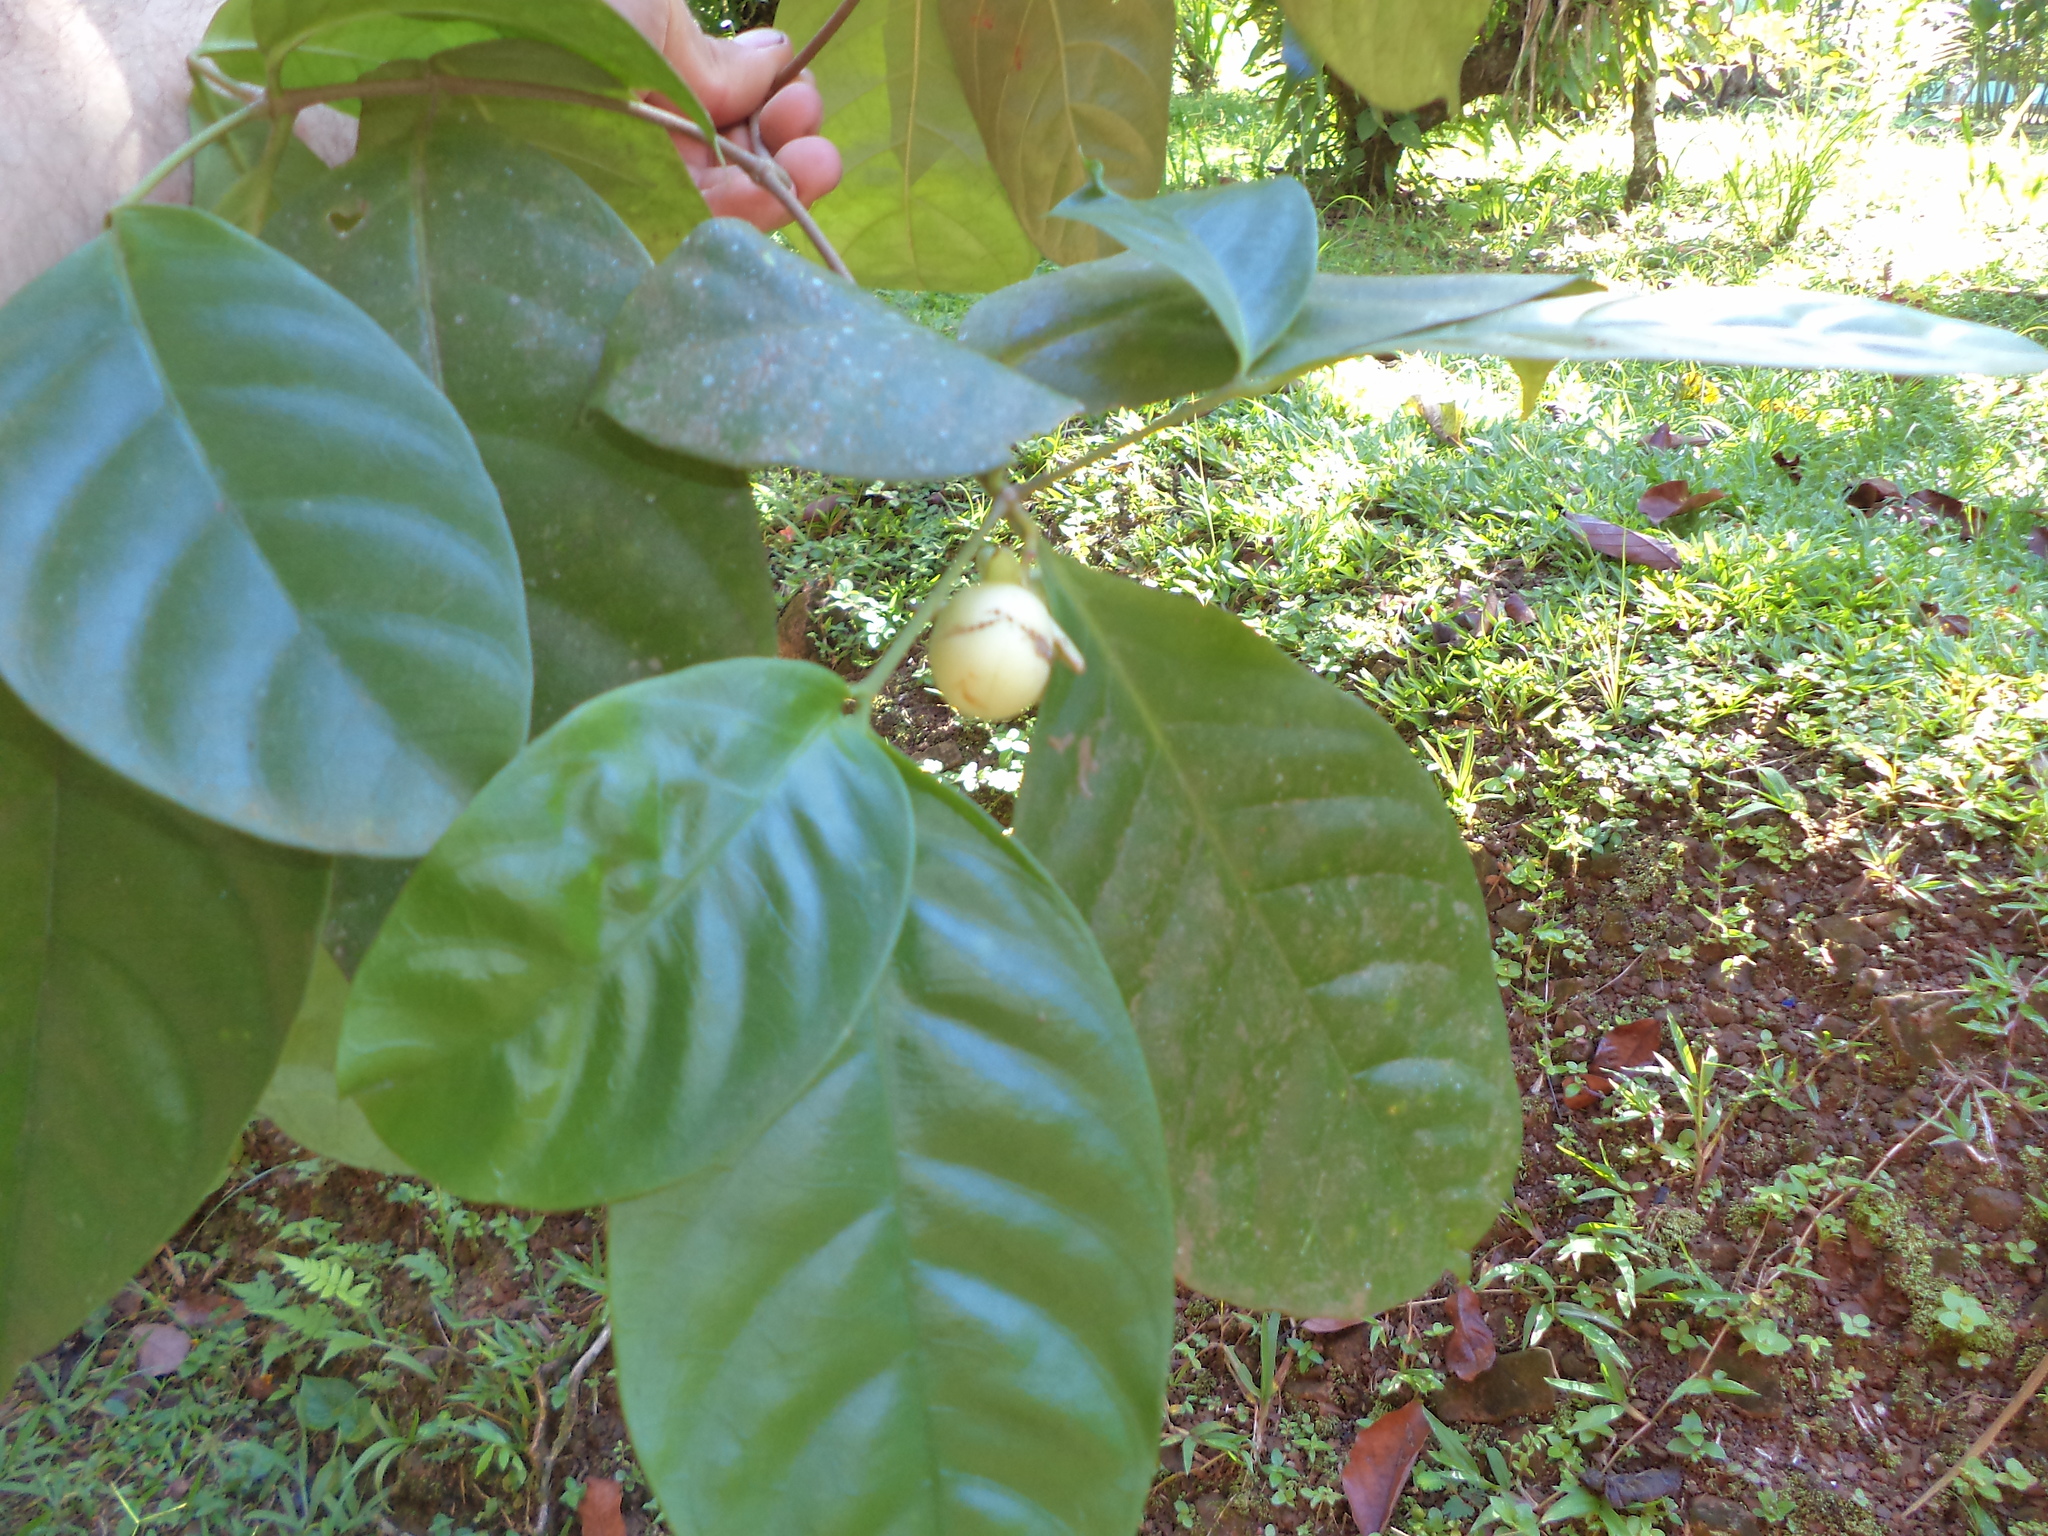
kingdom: Plantae
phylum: Tracheophyta
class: Magnoliopsida
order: Gentianales
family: Apocynaceae
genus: Tabernaemontana
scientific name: Tabernaemontana pauli
